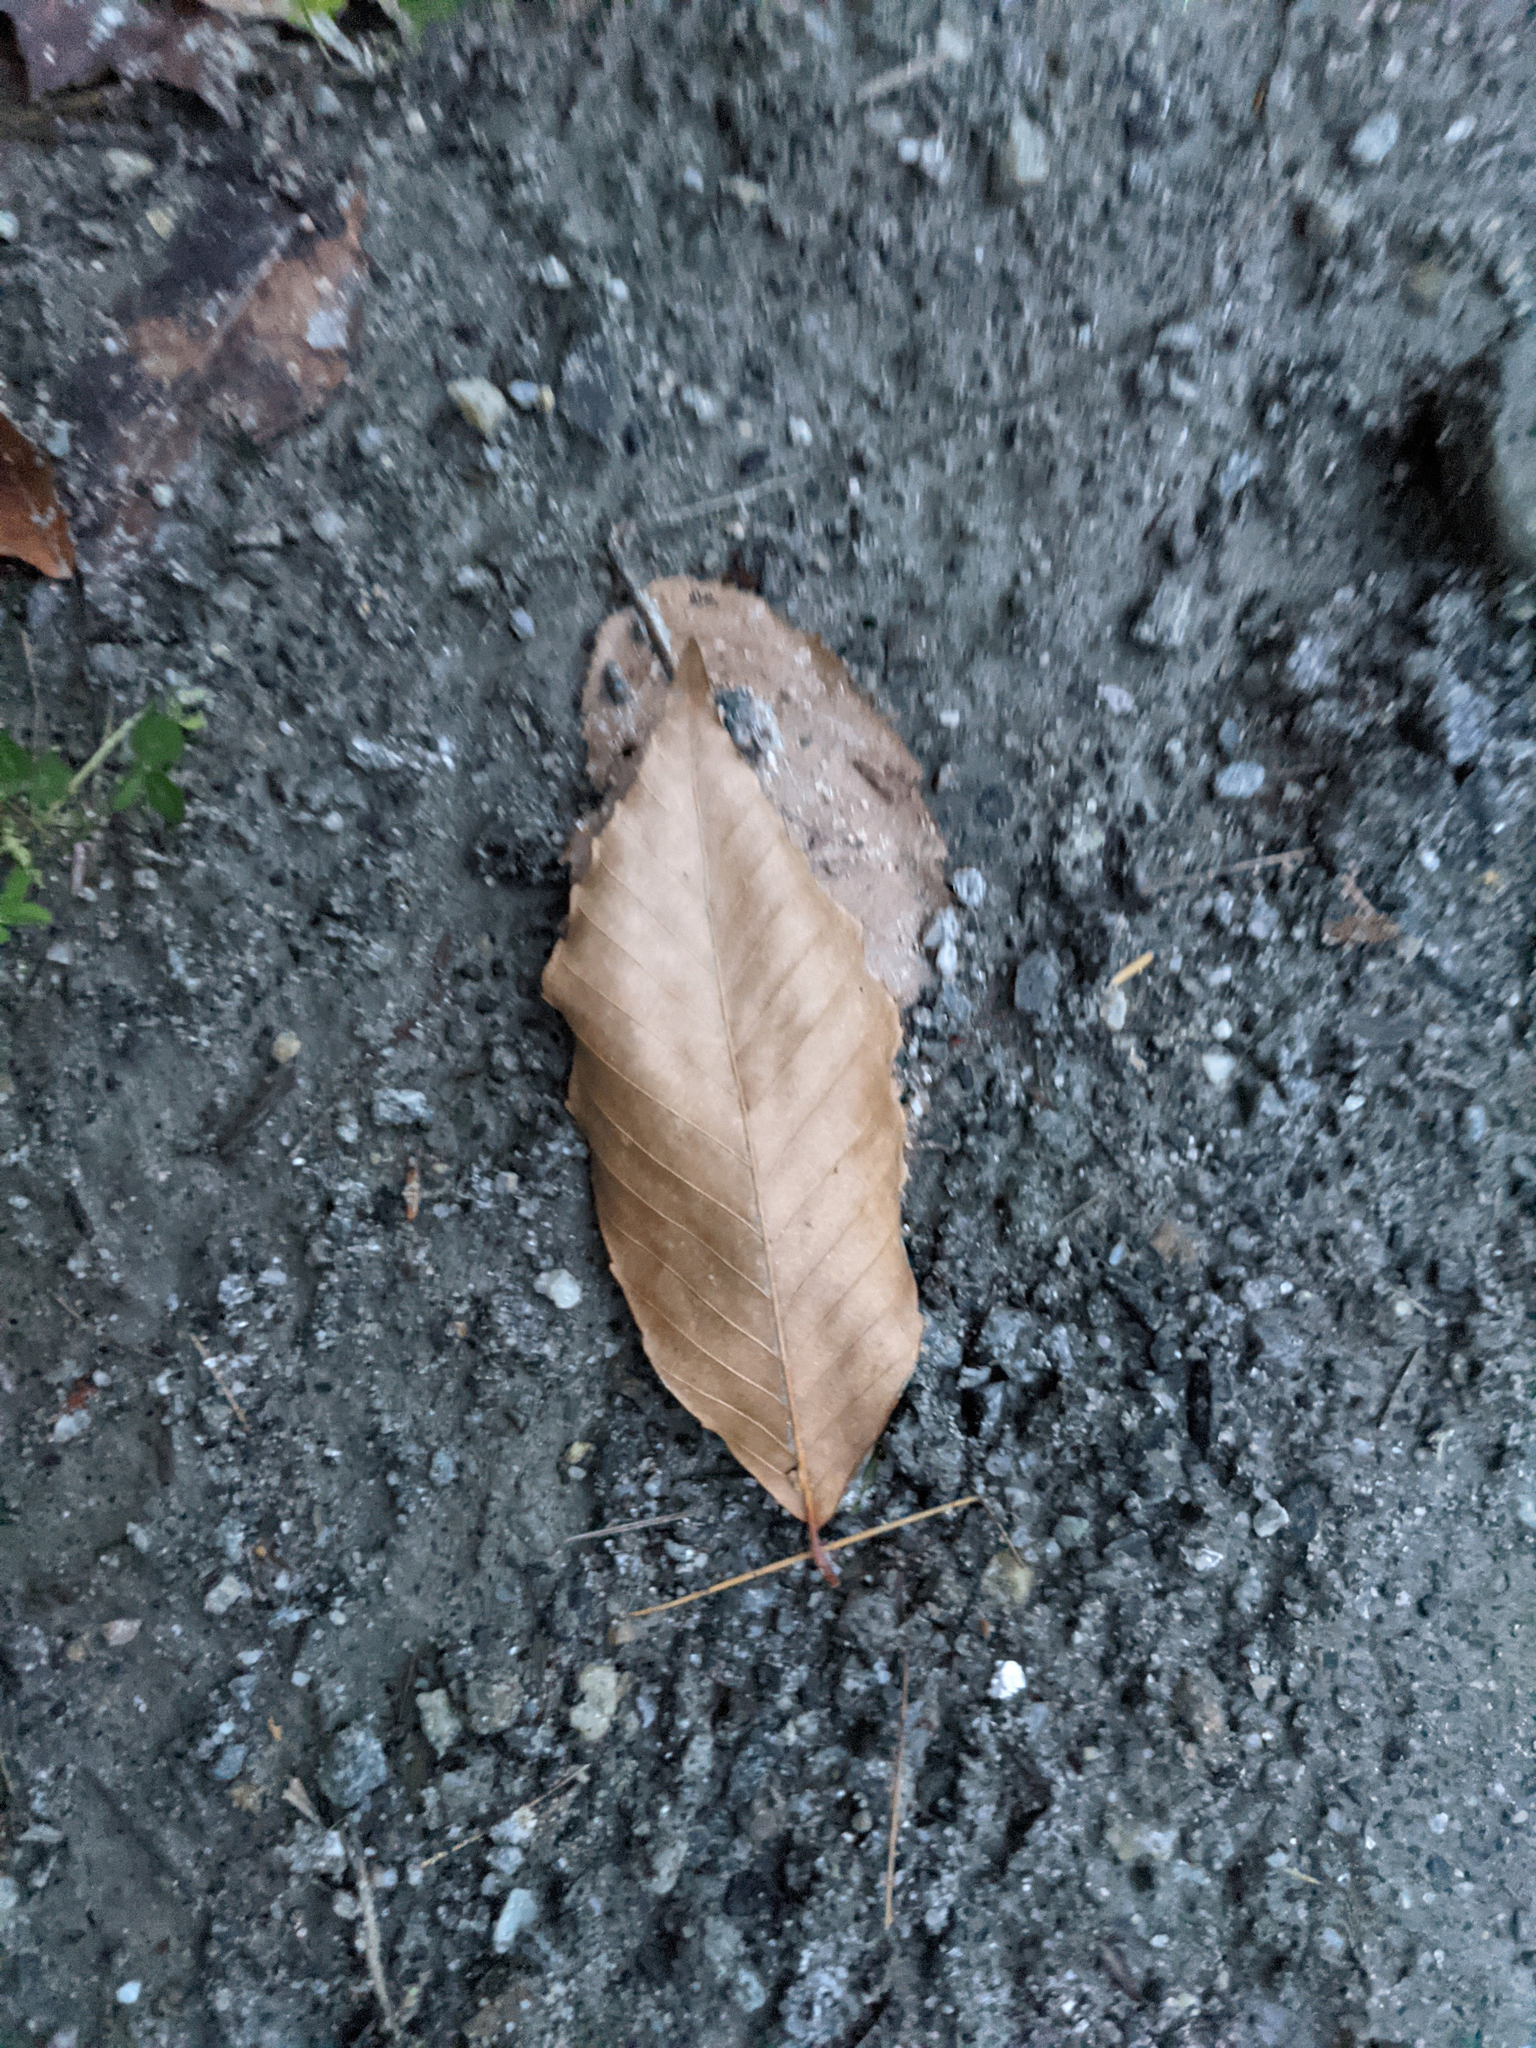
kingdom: Plantae
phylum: Tracheophyta
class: Magnoliopsida
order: Fagales
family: Fagaceae
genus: Fagus
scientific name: Fagus grandifolia
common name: American beech
